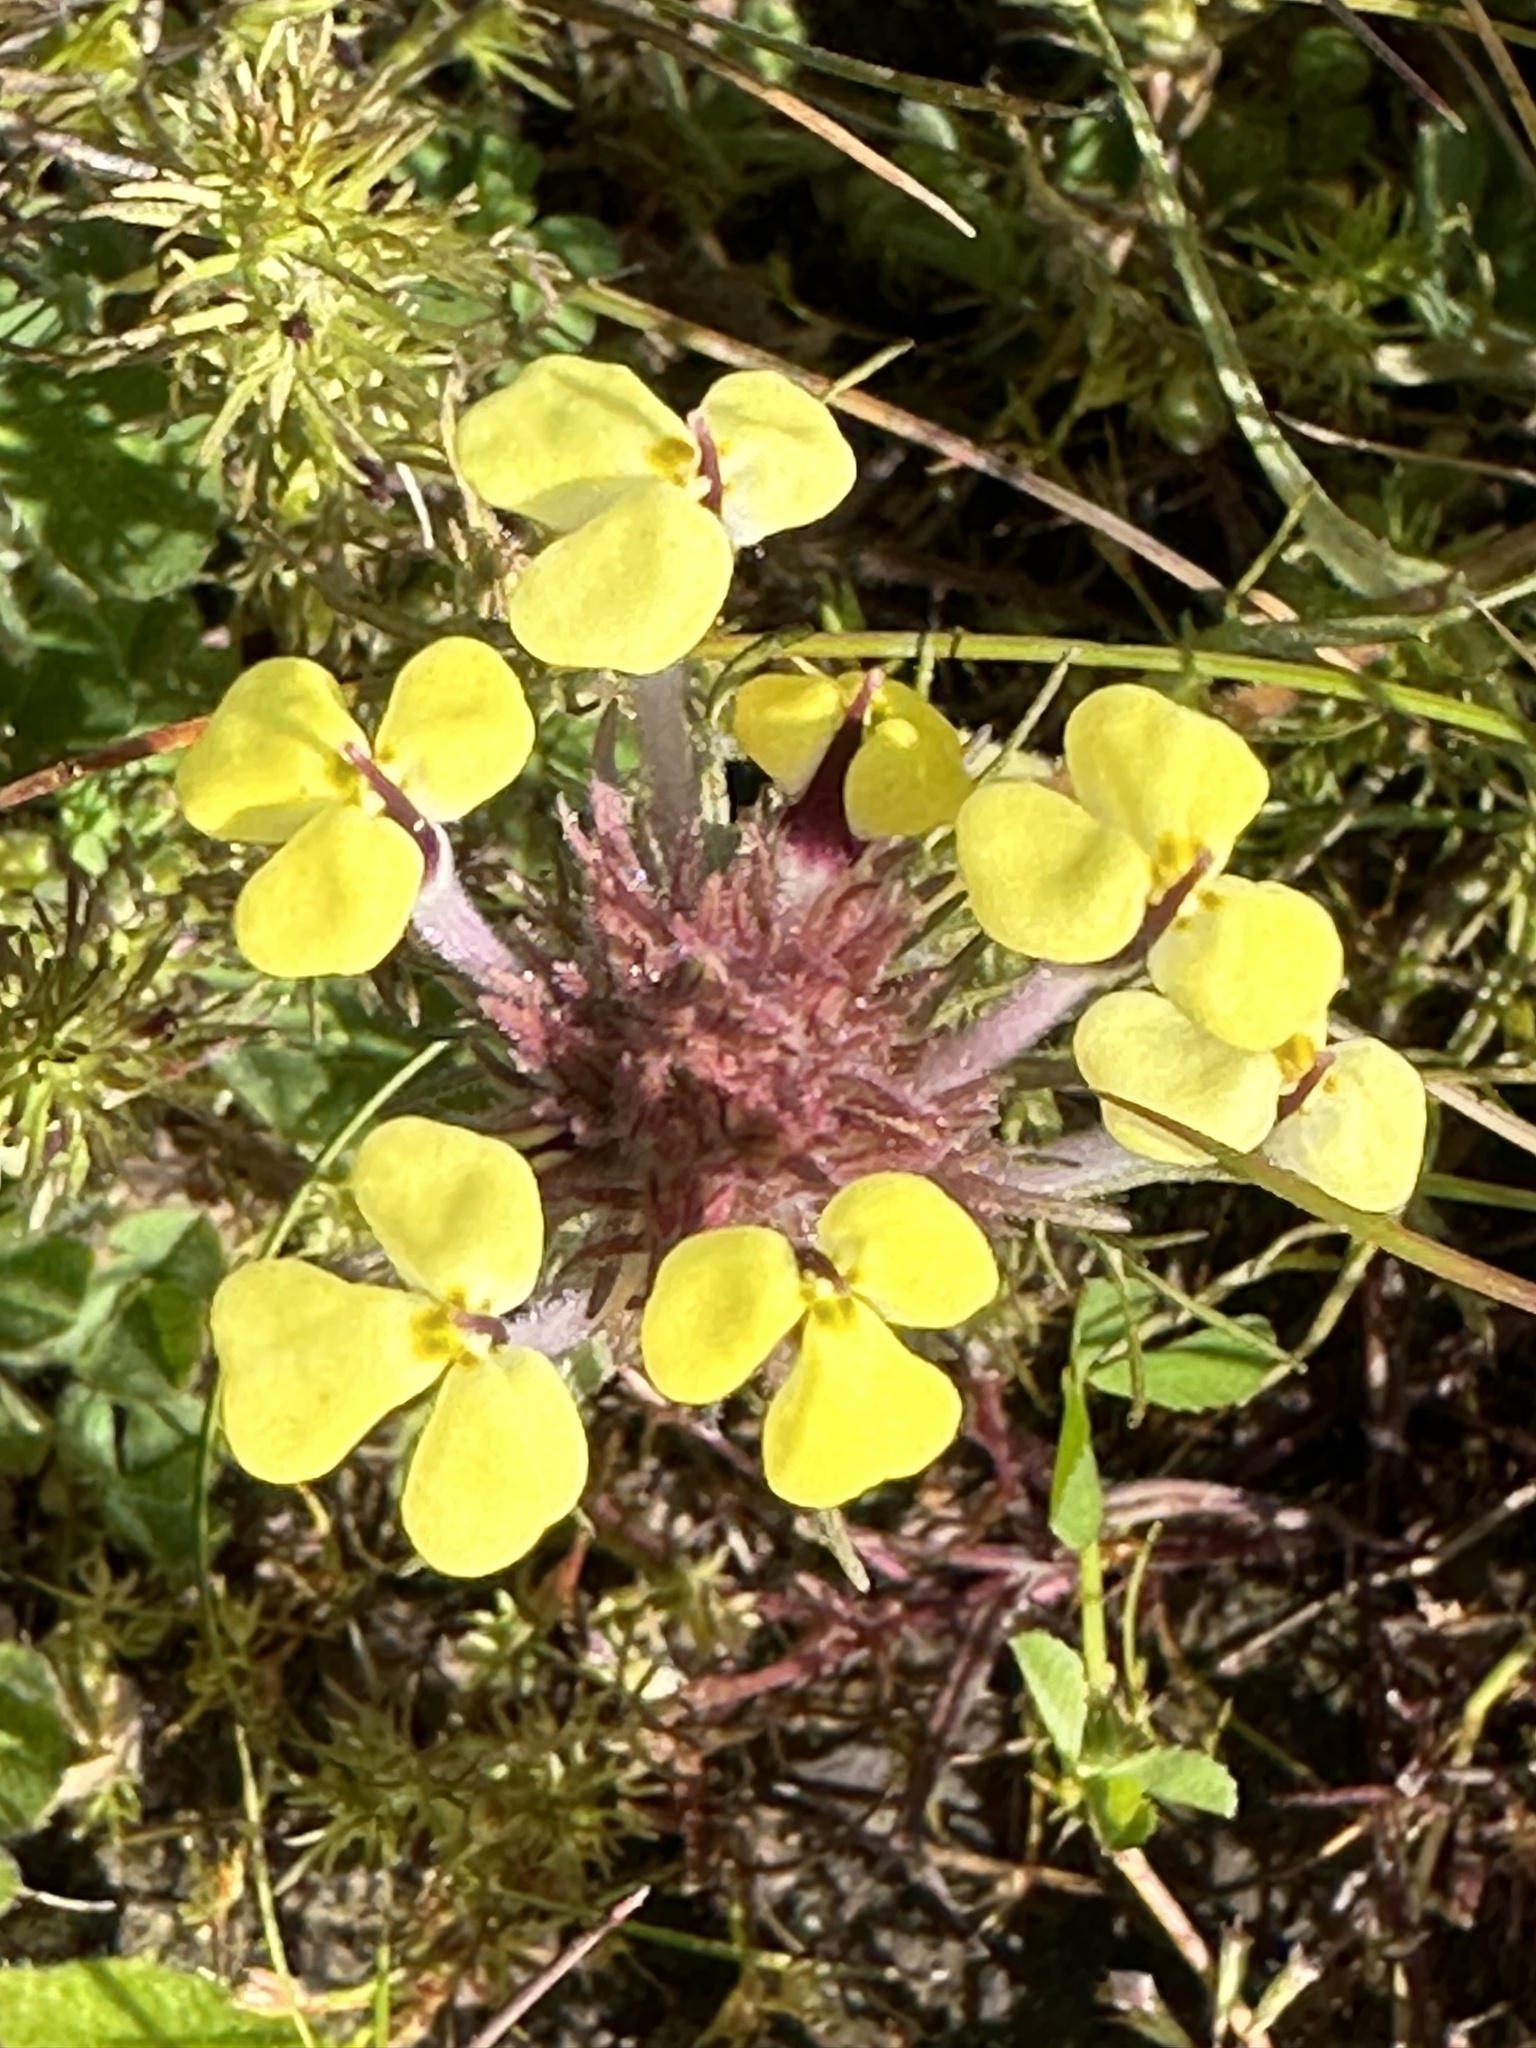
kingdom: Plantae
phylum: Tracheophyta
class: Magnoliopsida
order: Lamiales
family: Orobanchaceae
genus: Triphysaria
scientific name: Triphysaria eriantha
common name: Johnny-tuck
